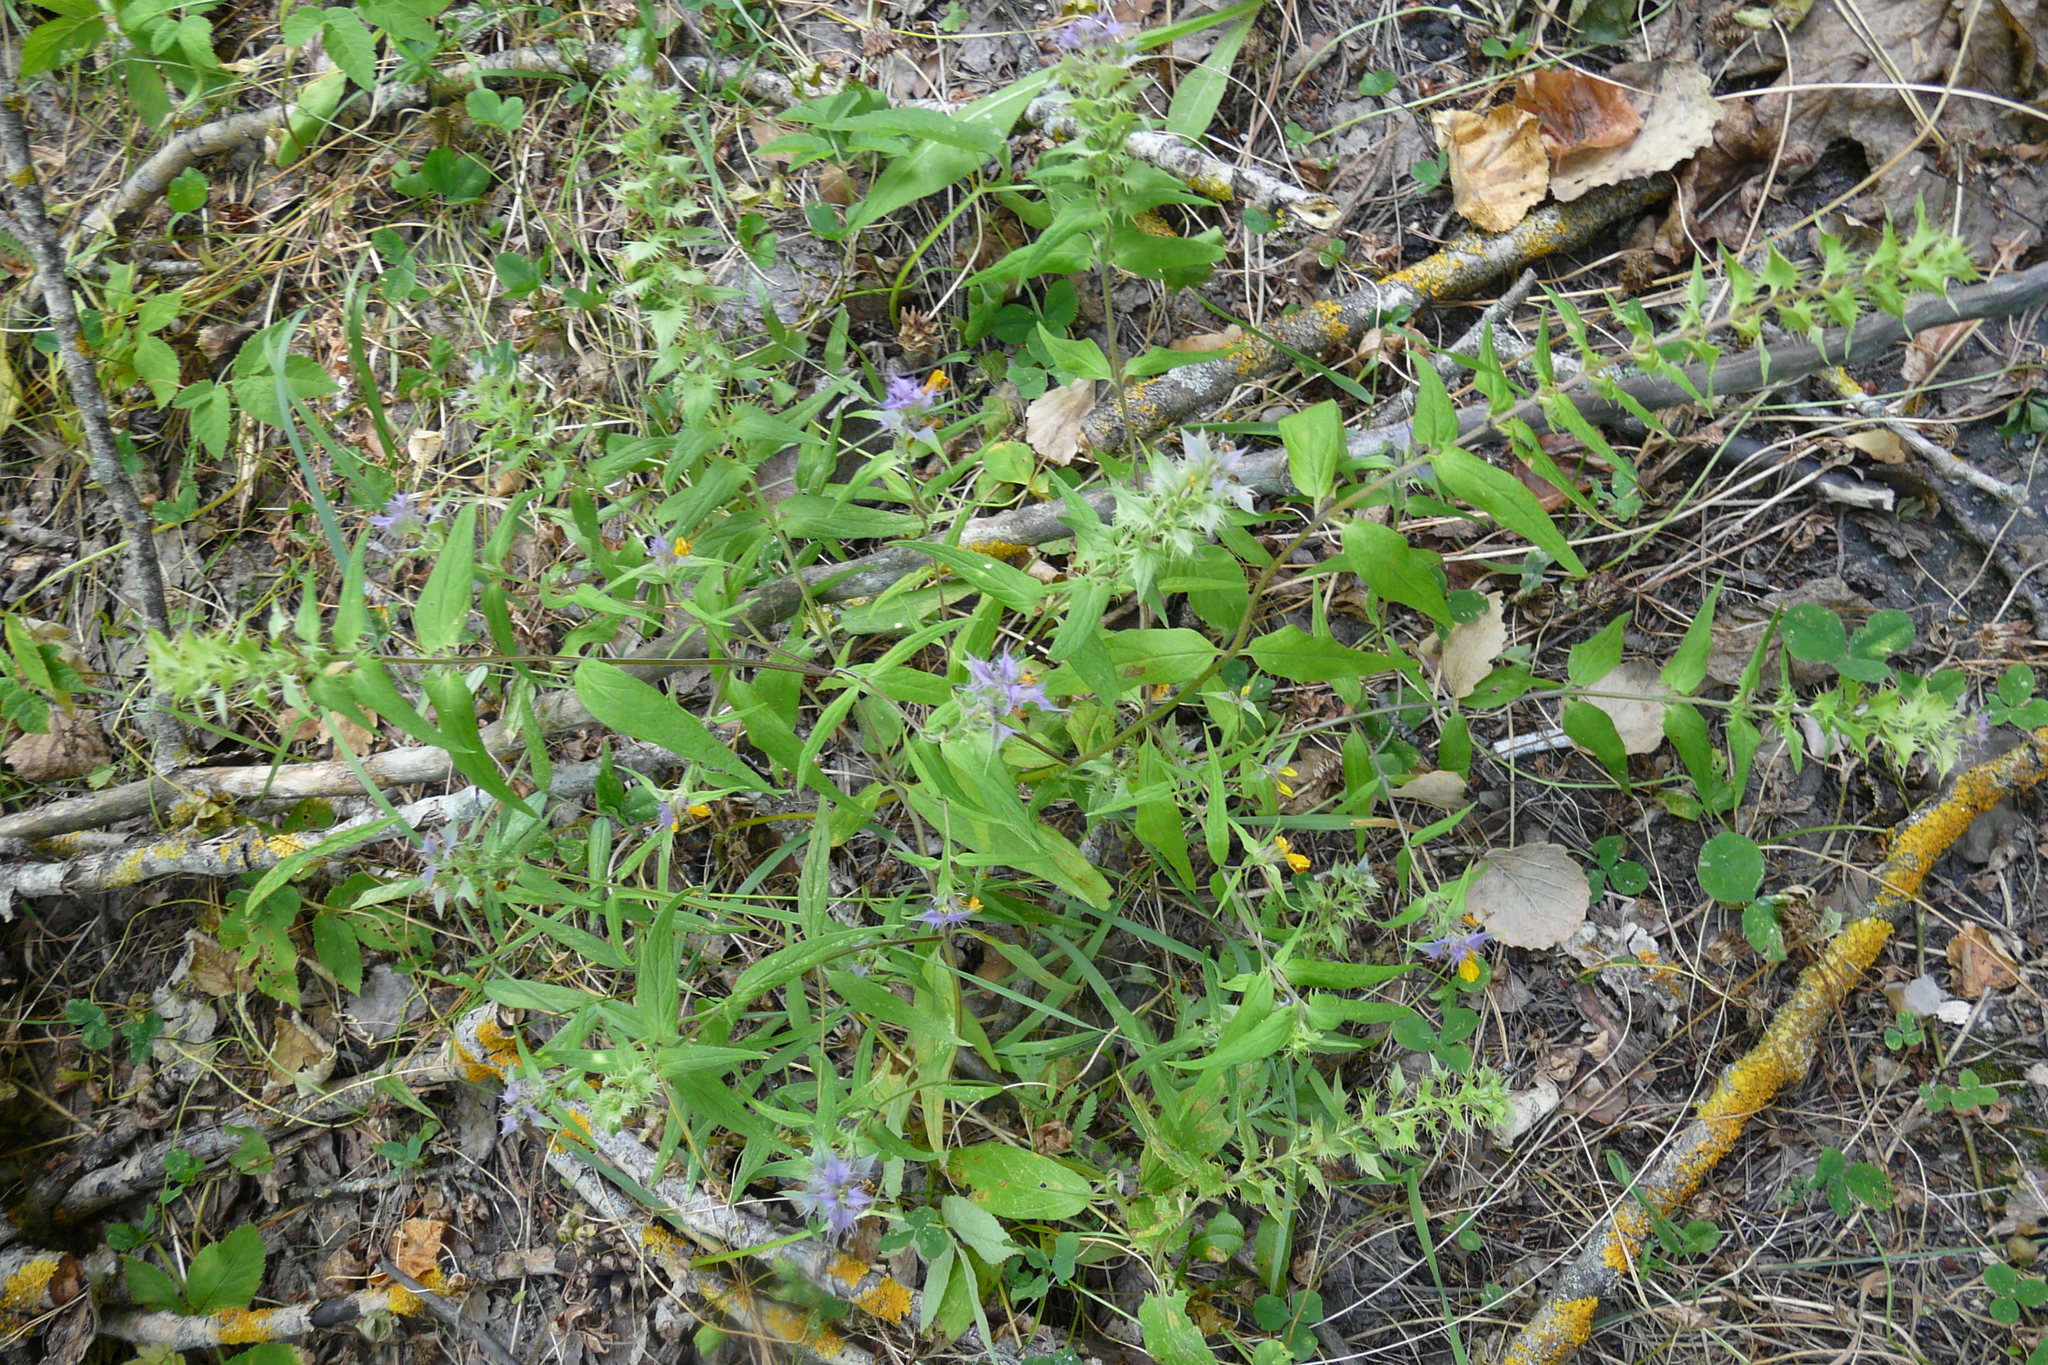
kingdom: Plantae
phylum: Tracheophyta
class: Magnoliopsida
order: Lamiales
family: Orobanchaceae
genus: Melampyrum
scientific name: Melampyrum nemorosum
